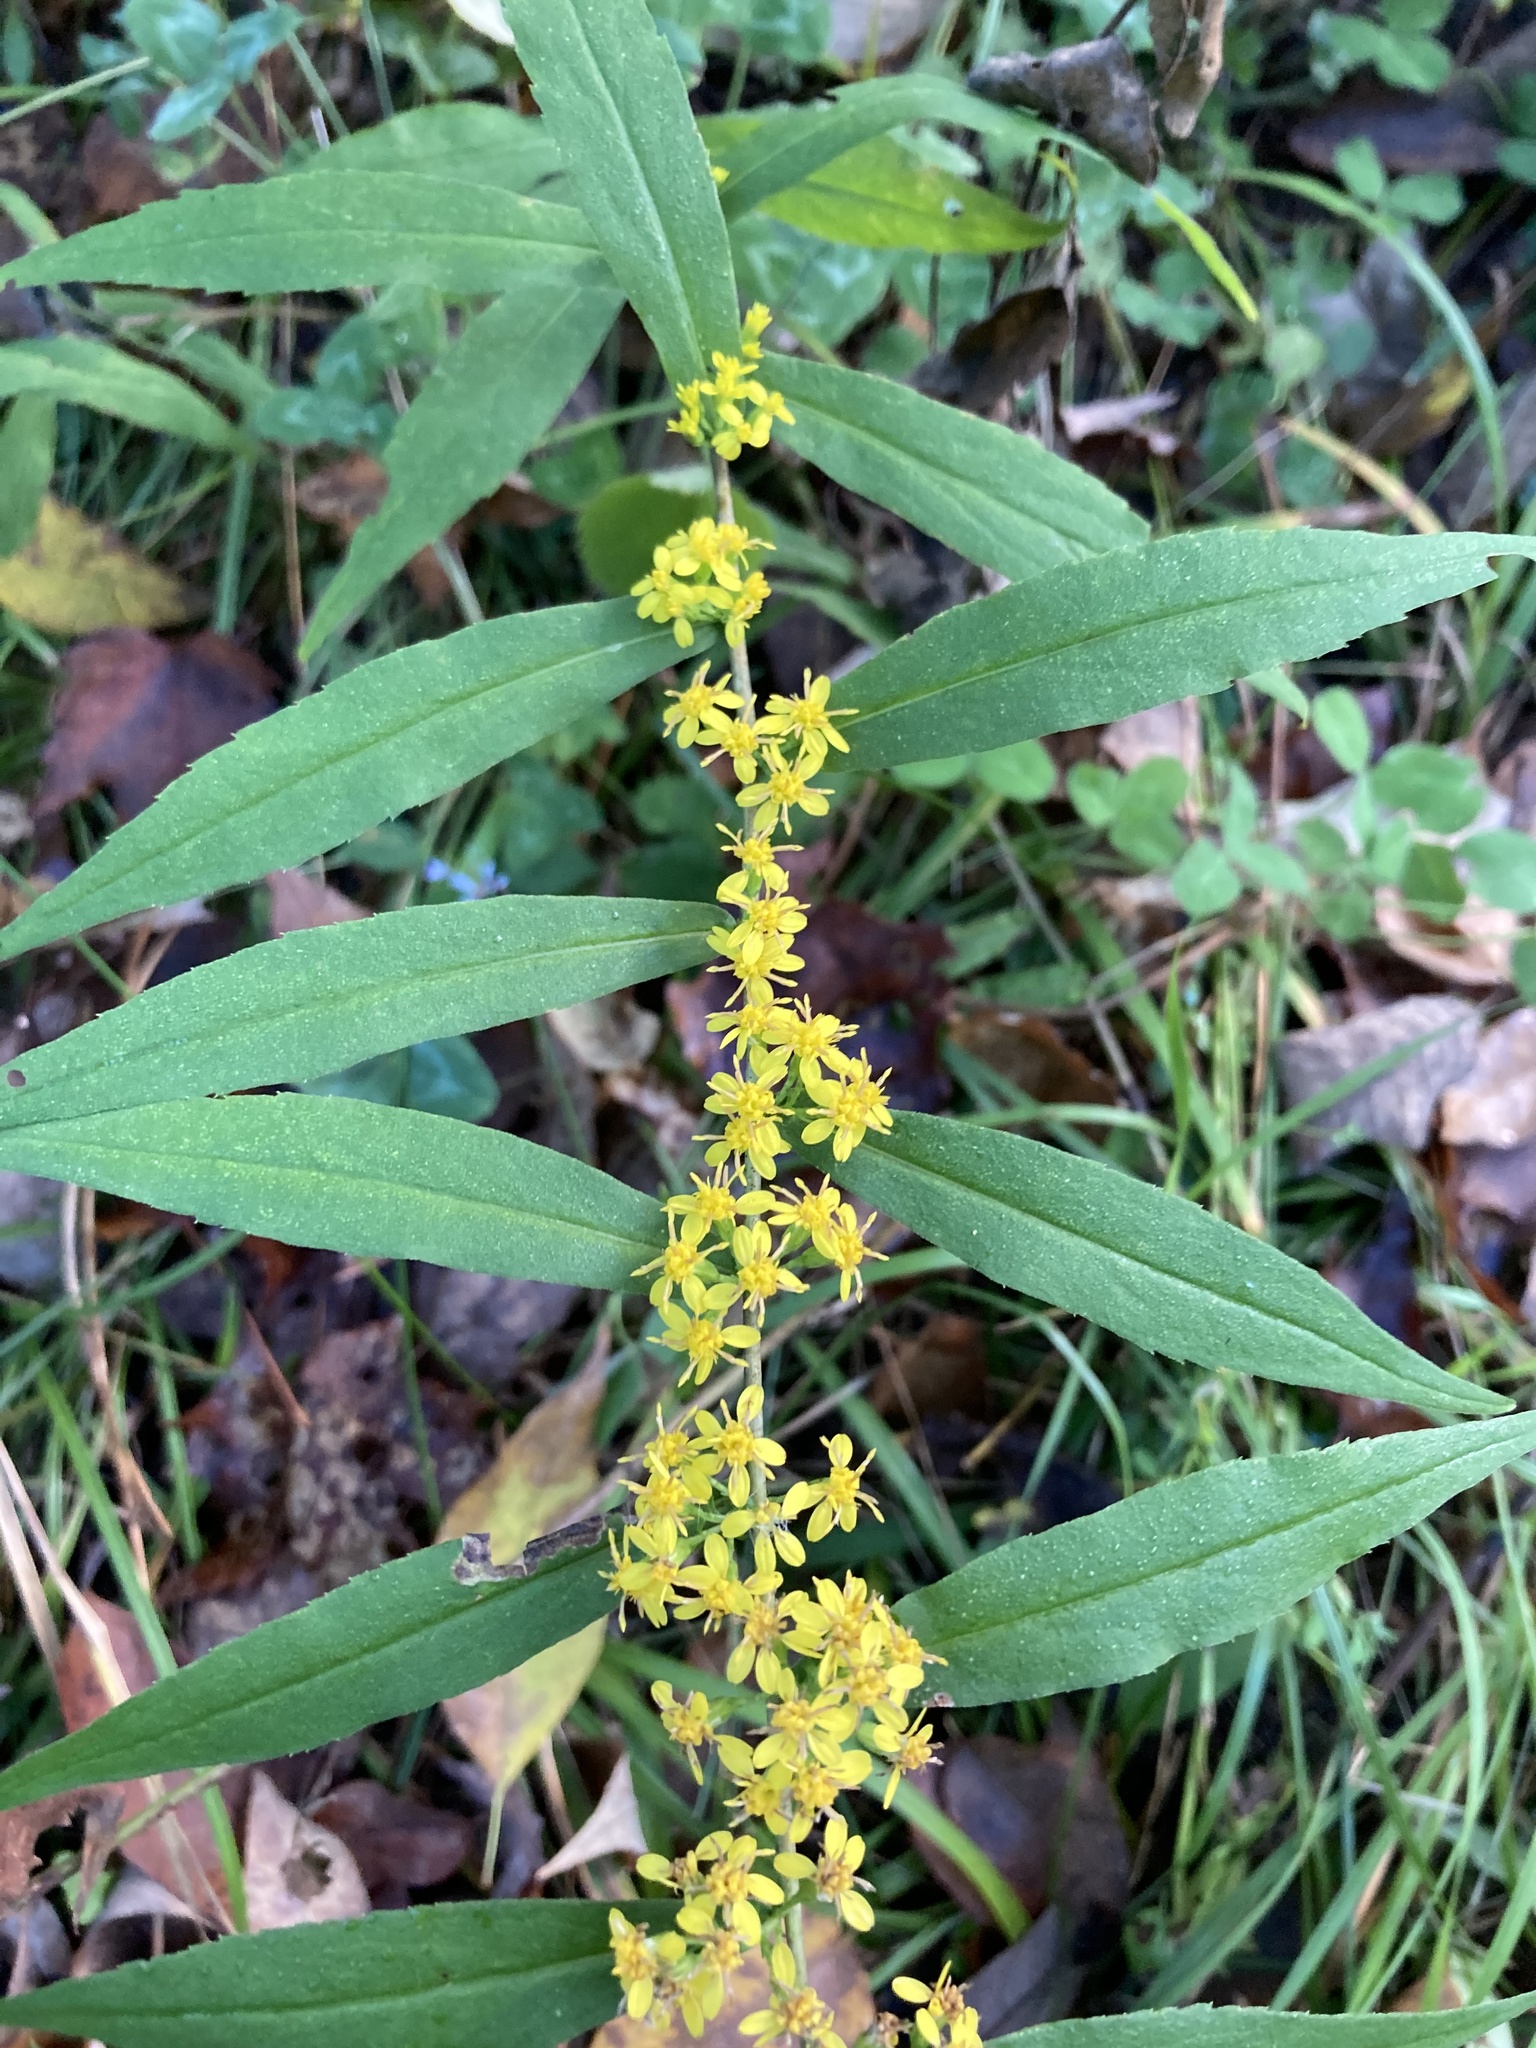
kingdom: Plantae
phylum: Tracheophyta
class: Magnoliopsida
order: Asterales
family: Asteraceae
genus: Solidago
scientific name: Solidago caesia
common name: Woodland goldenrod
